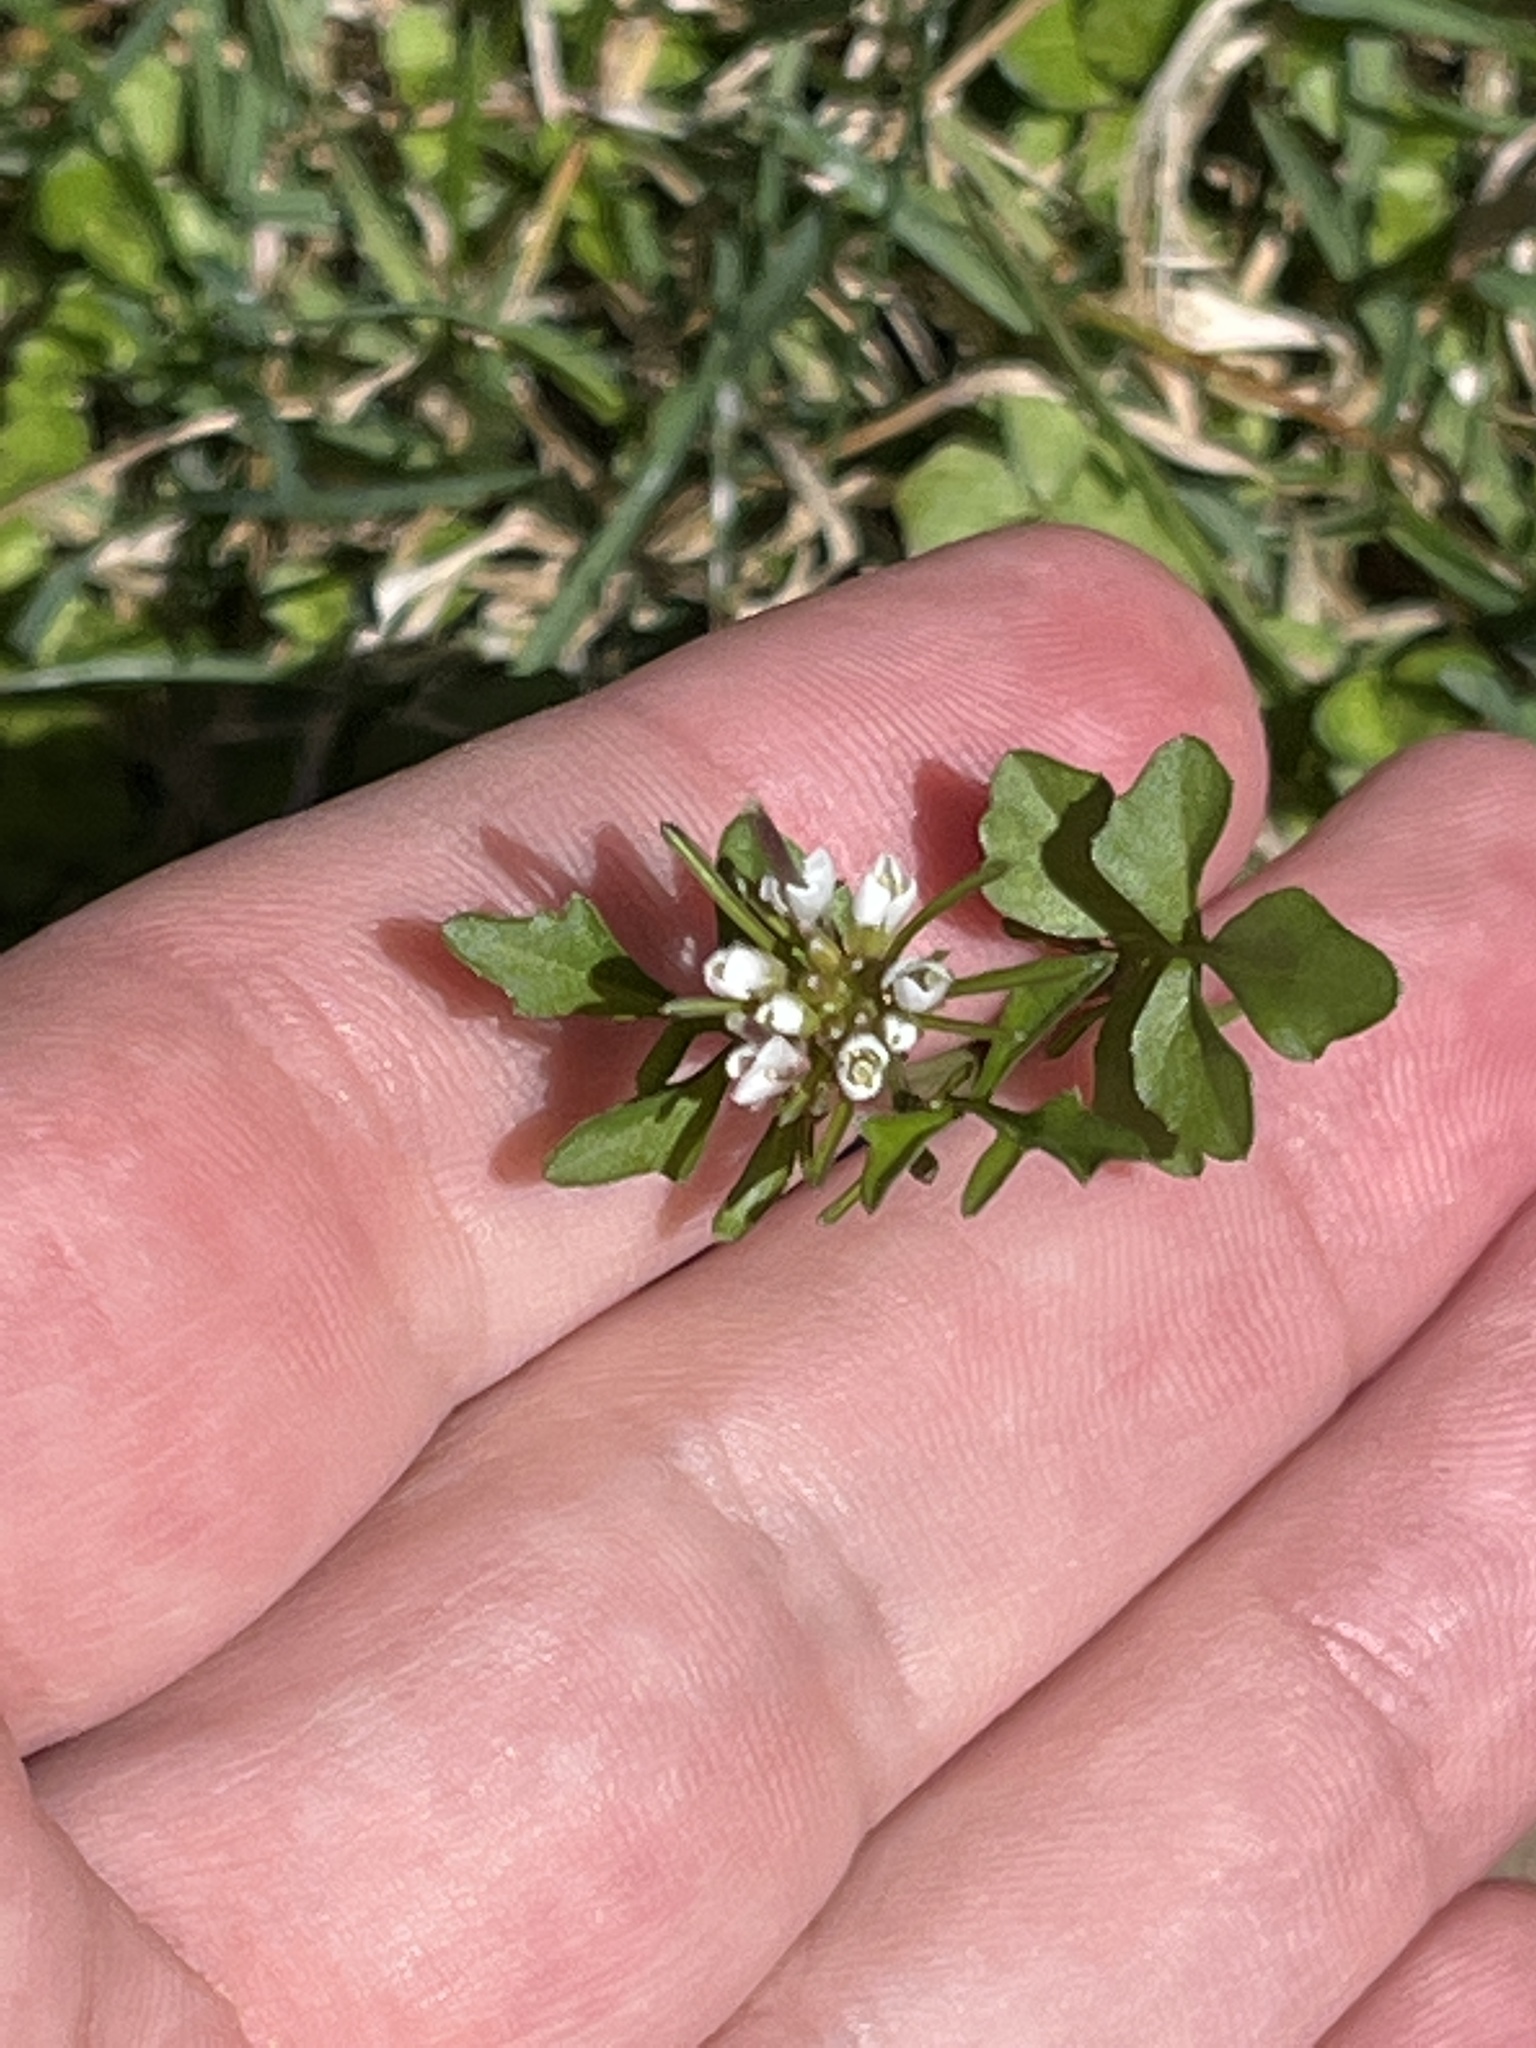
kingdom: Plantae
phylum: Tracheophyta
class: Magnoliopsida
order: Brassicales
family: Brassicaceae
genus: Cardamine
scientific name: Cardamine hirsuta
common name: Hairy bittercress
